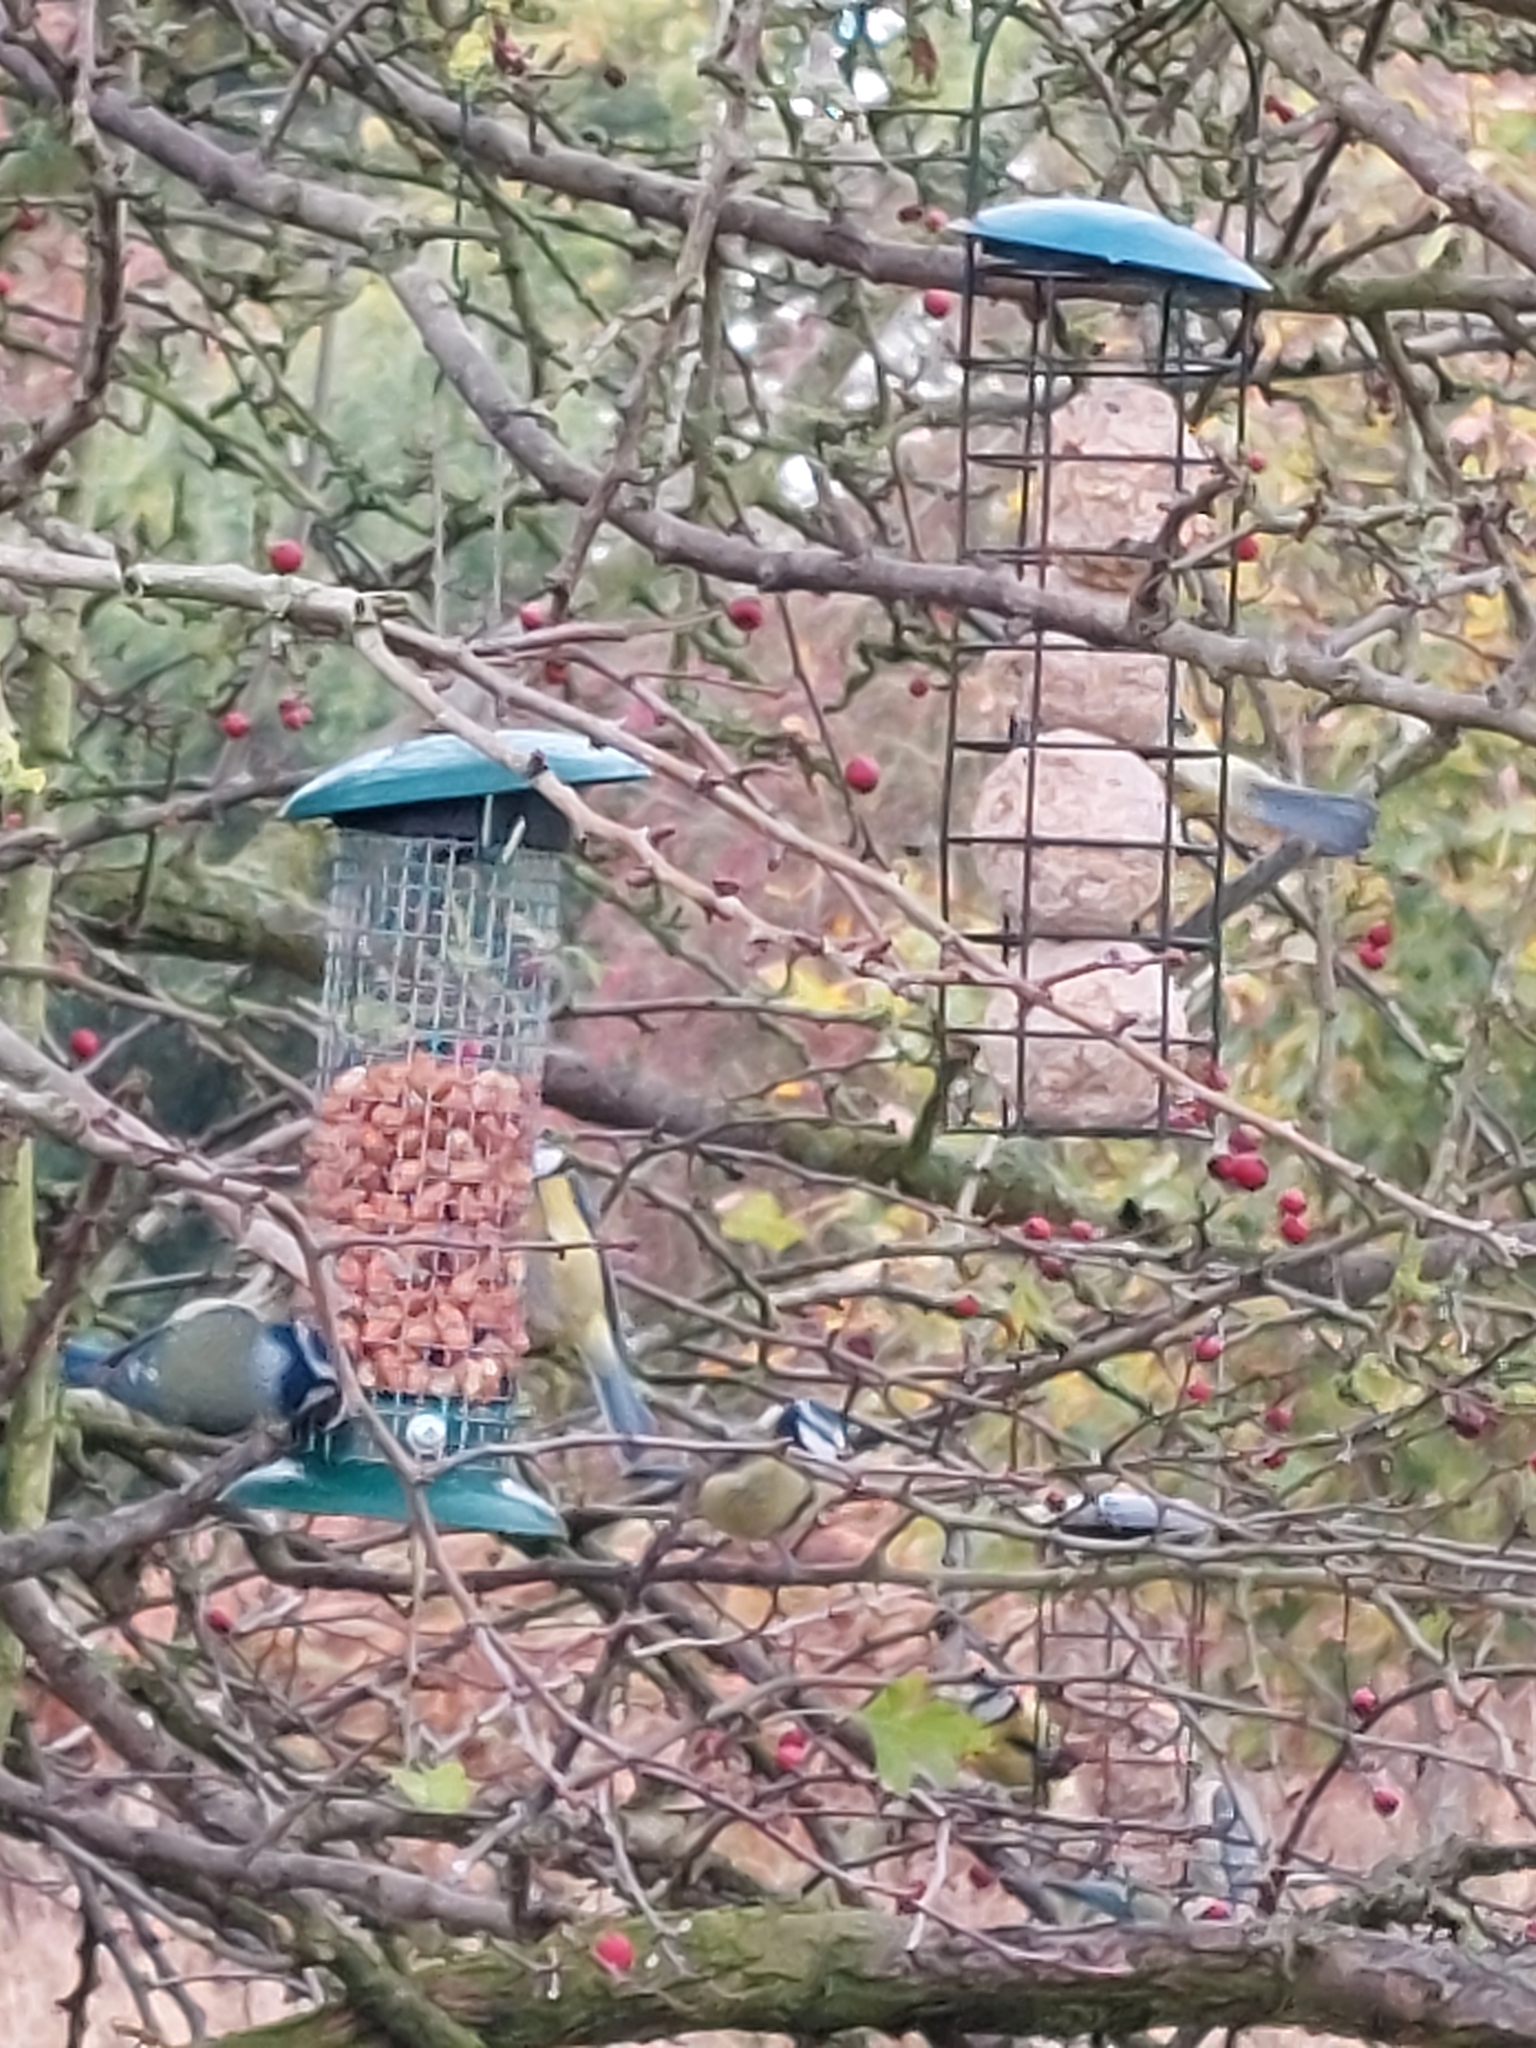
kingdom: Animalia
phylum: Chordata
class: Aves
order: Passeriformes
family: Paridae
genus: Cyanistes
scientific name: Cyanistes caeruleus
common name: Eurasian blue tit
